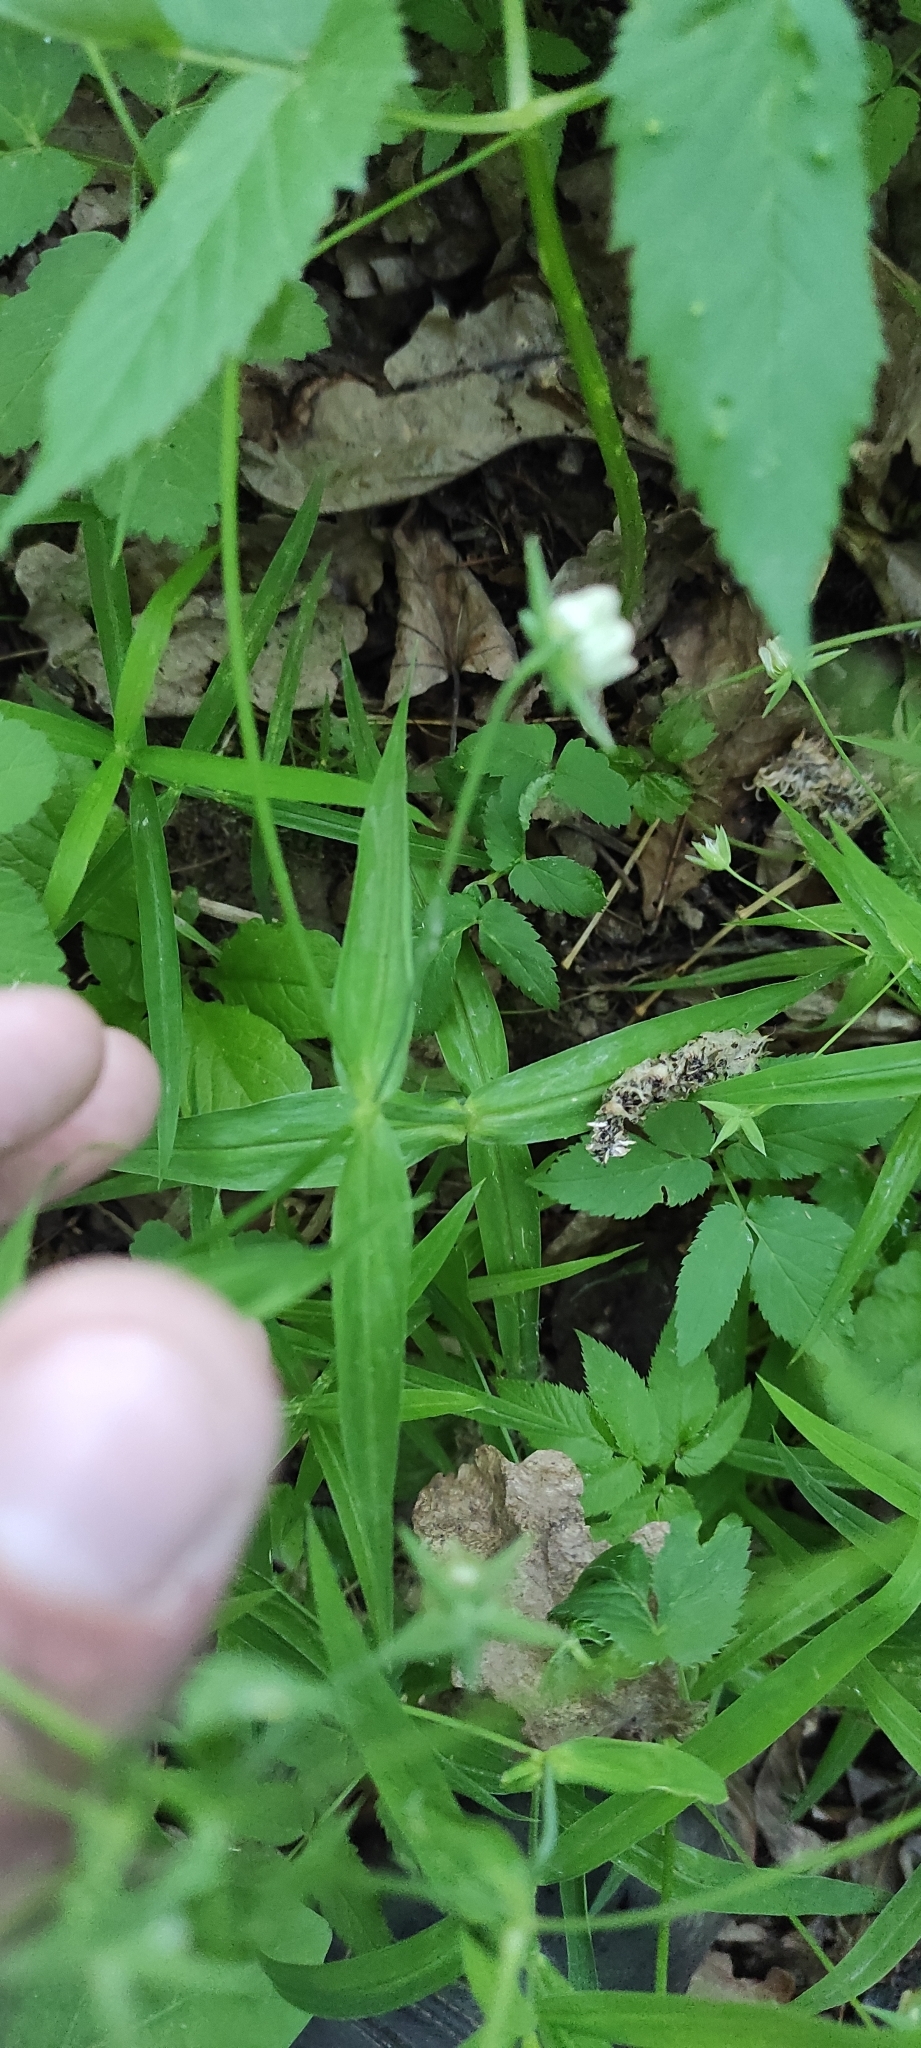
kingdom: Plantae
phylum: Tracheophyta
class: Magnoliopsida
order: Caryophyllales
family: Caryophyllaceae
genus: Rabelera
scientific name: Rabelera holostea
